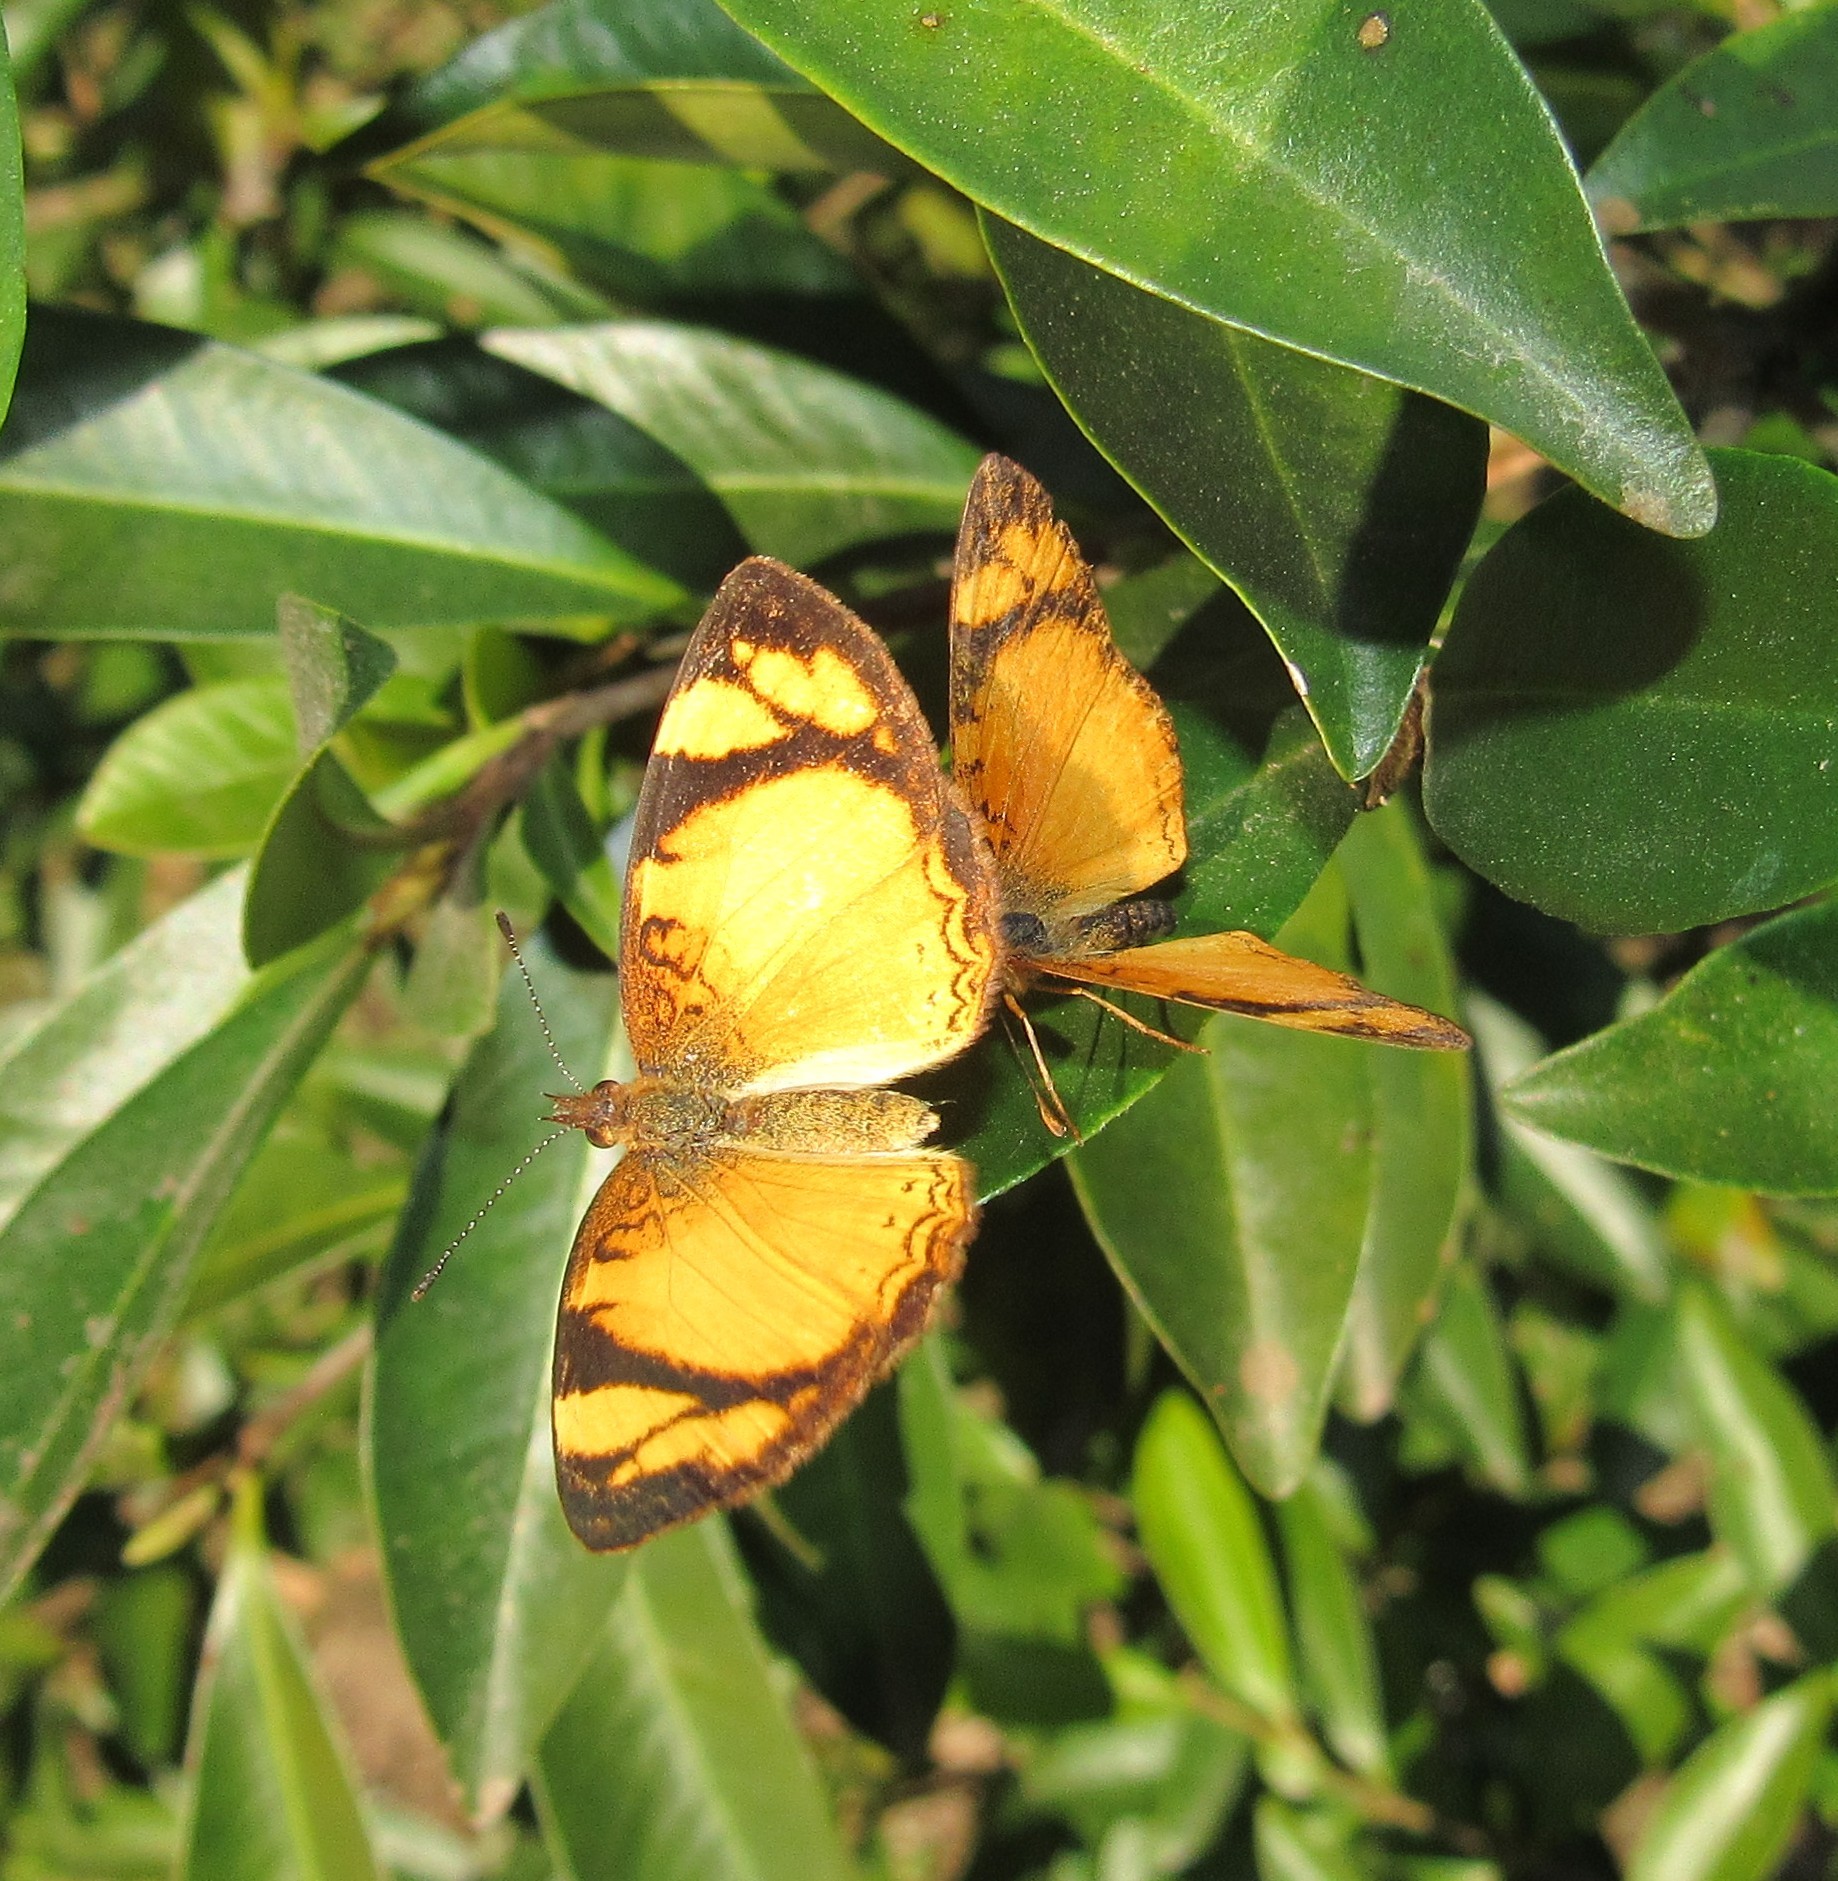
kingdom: Animalia
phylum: Arthropoda
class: Insecta
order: Lepidoptera
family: Nymphalidae
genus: Tegosa
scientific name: Tegosa claudina
